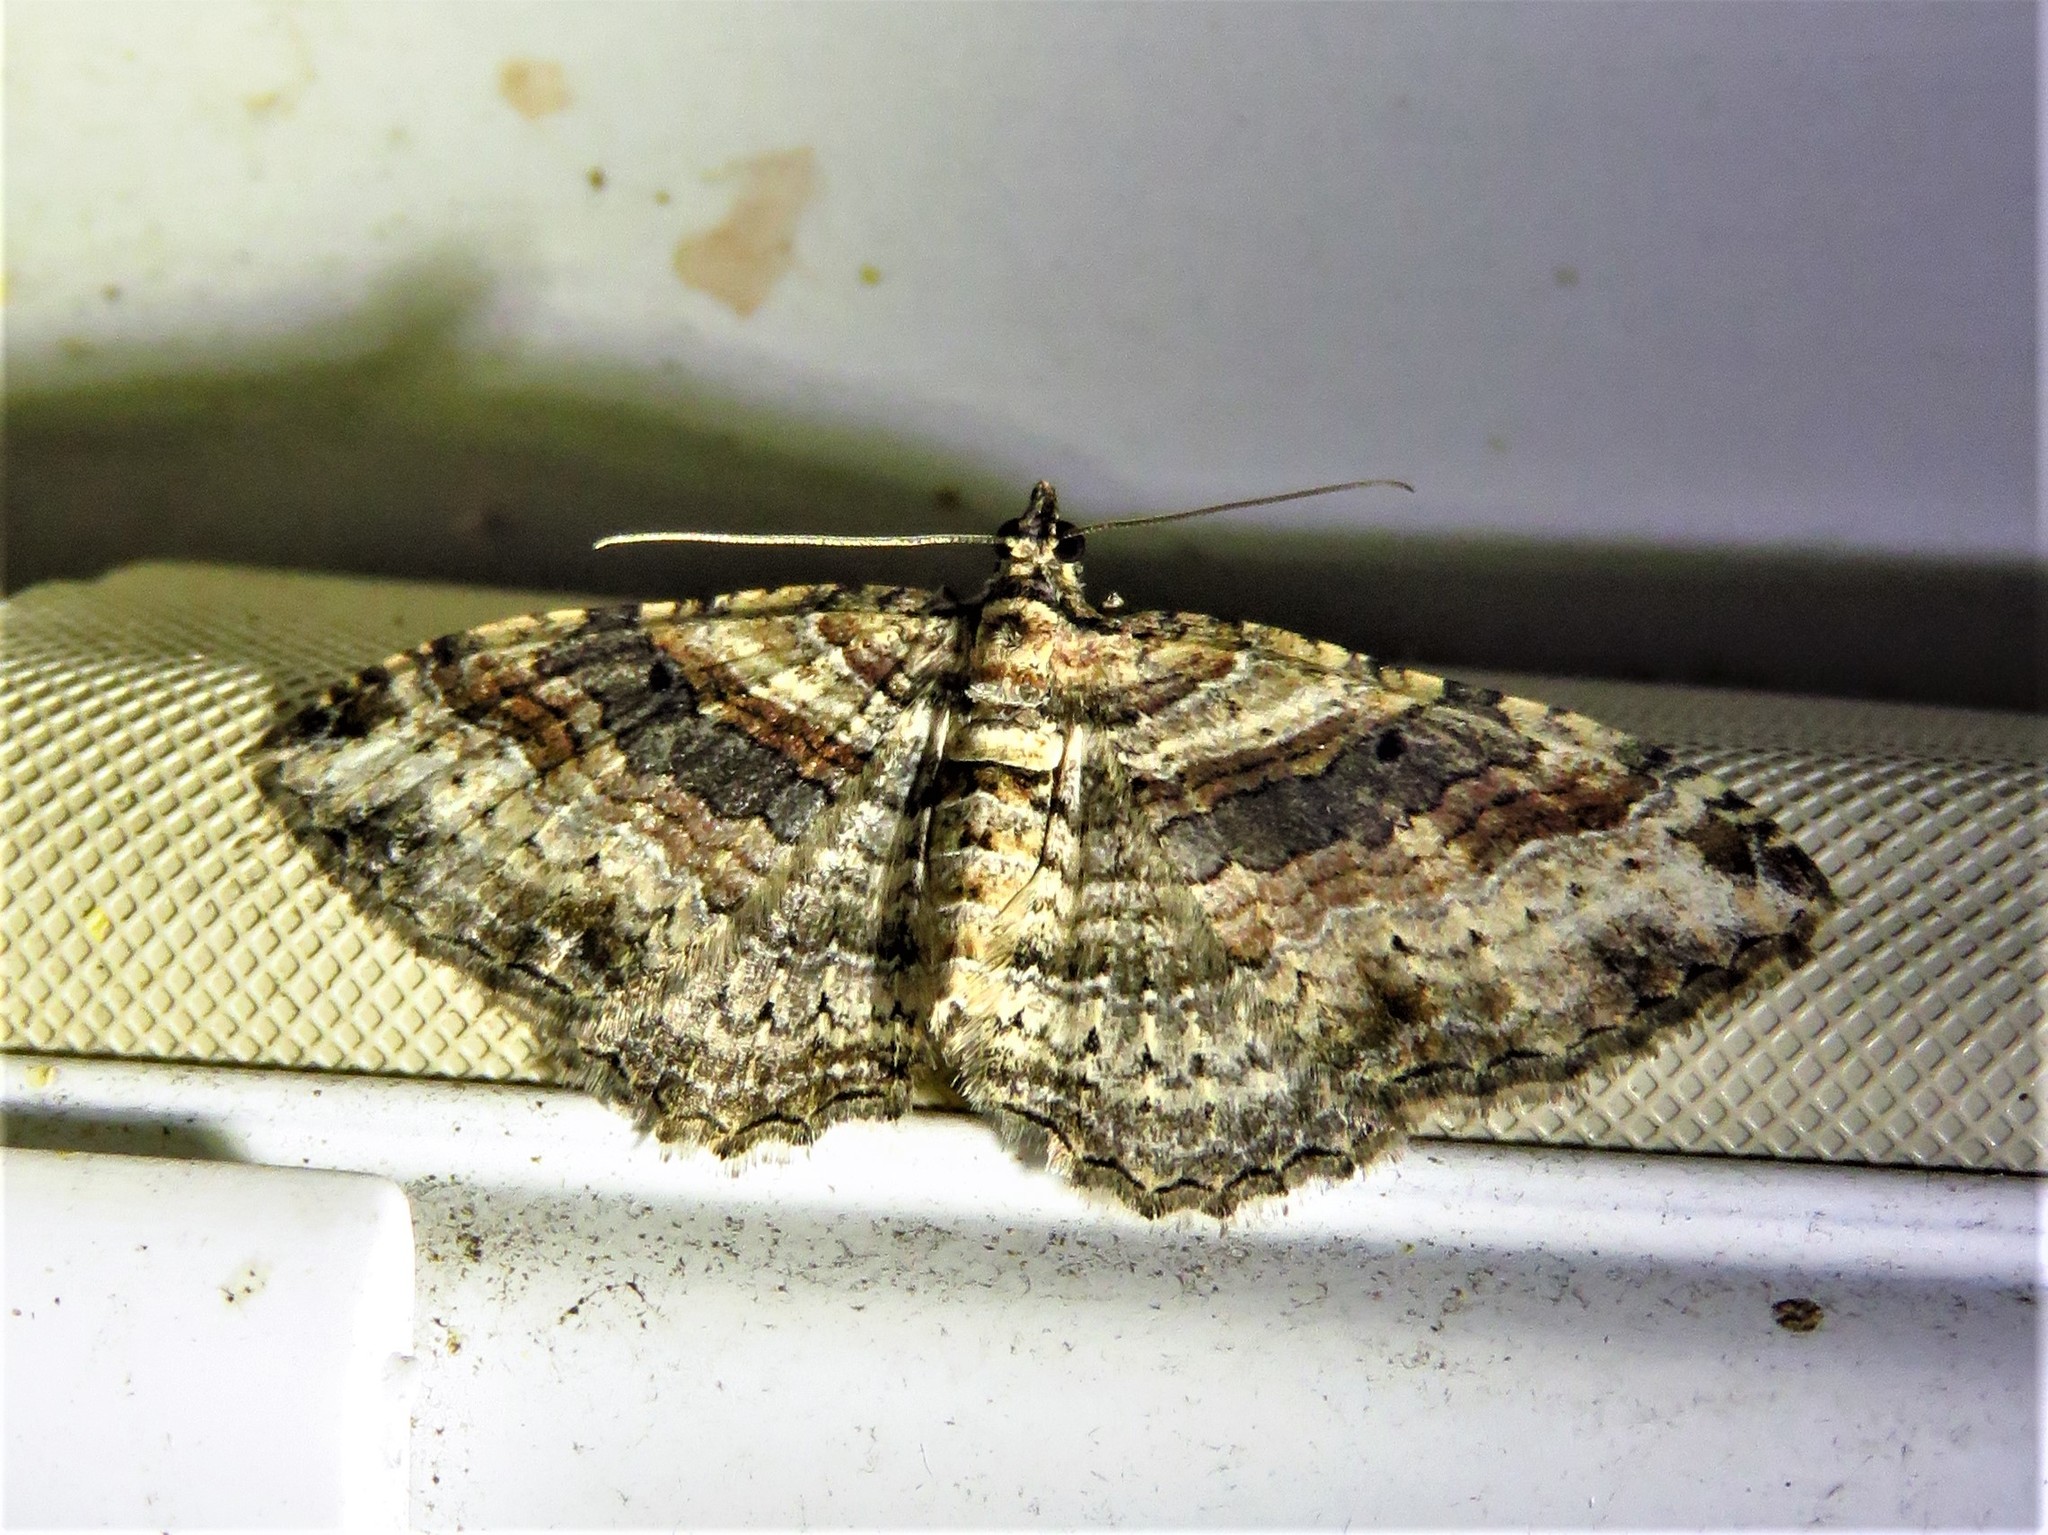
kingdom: Animalia
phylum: Arthropoda
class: Insecta
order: Lepidoptera
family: Geometridae
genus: Costaconvexa
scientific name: Costaconvexa centrostrigaria
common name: Bent-line carpet
